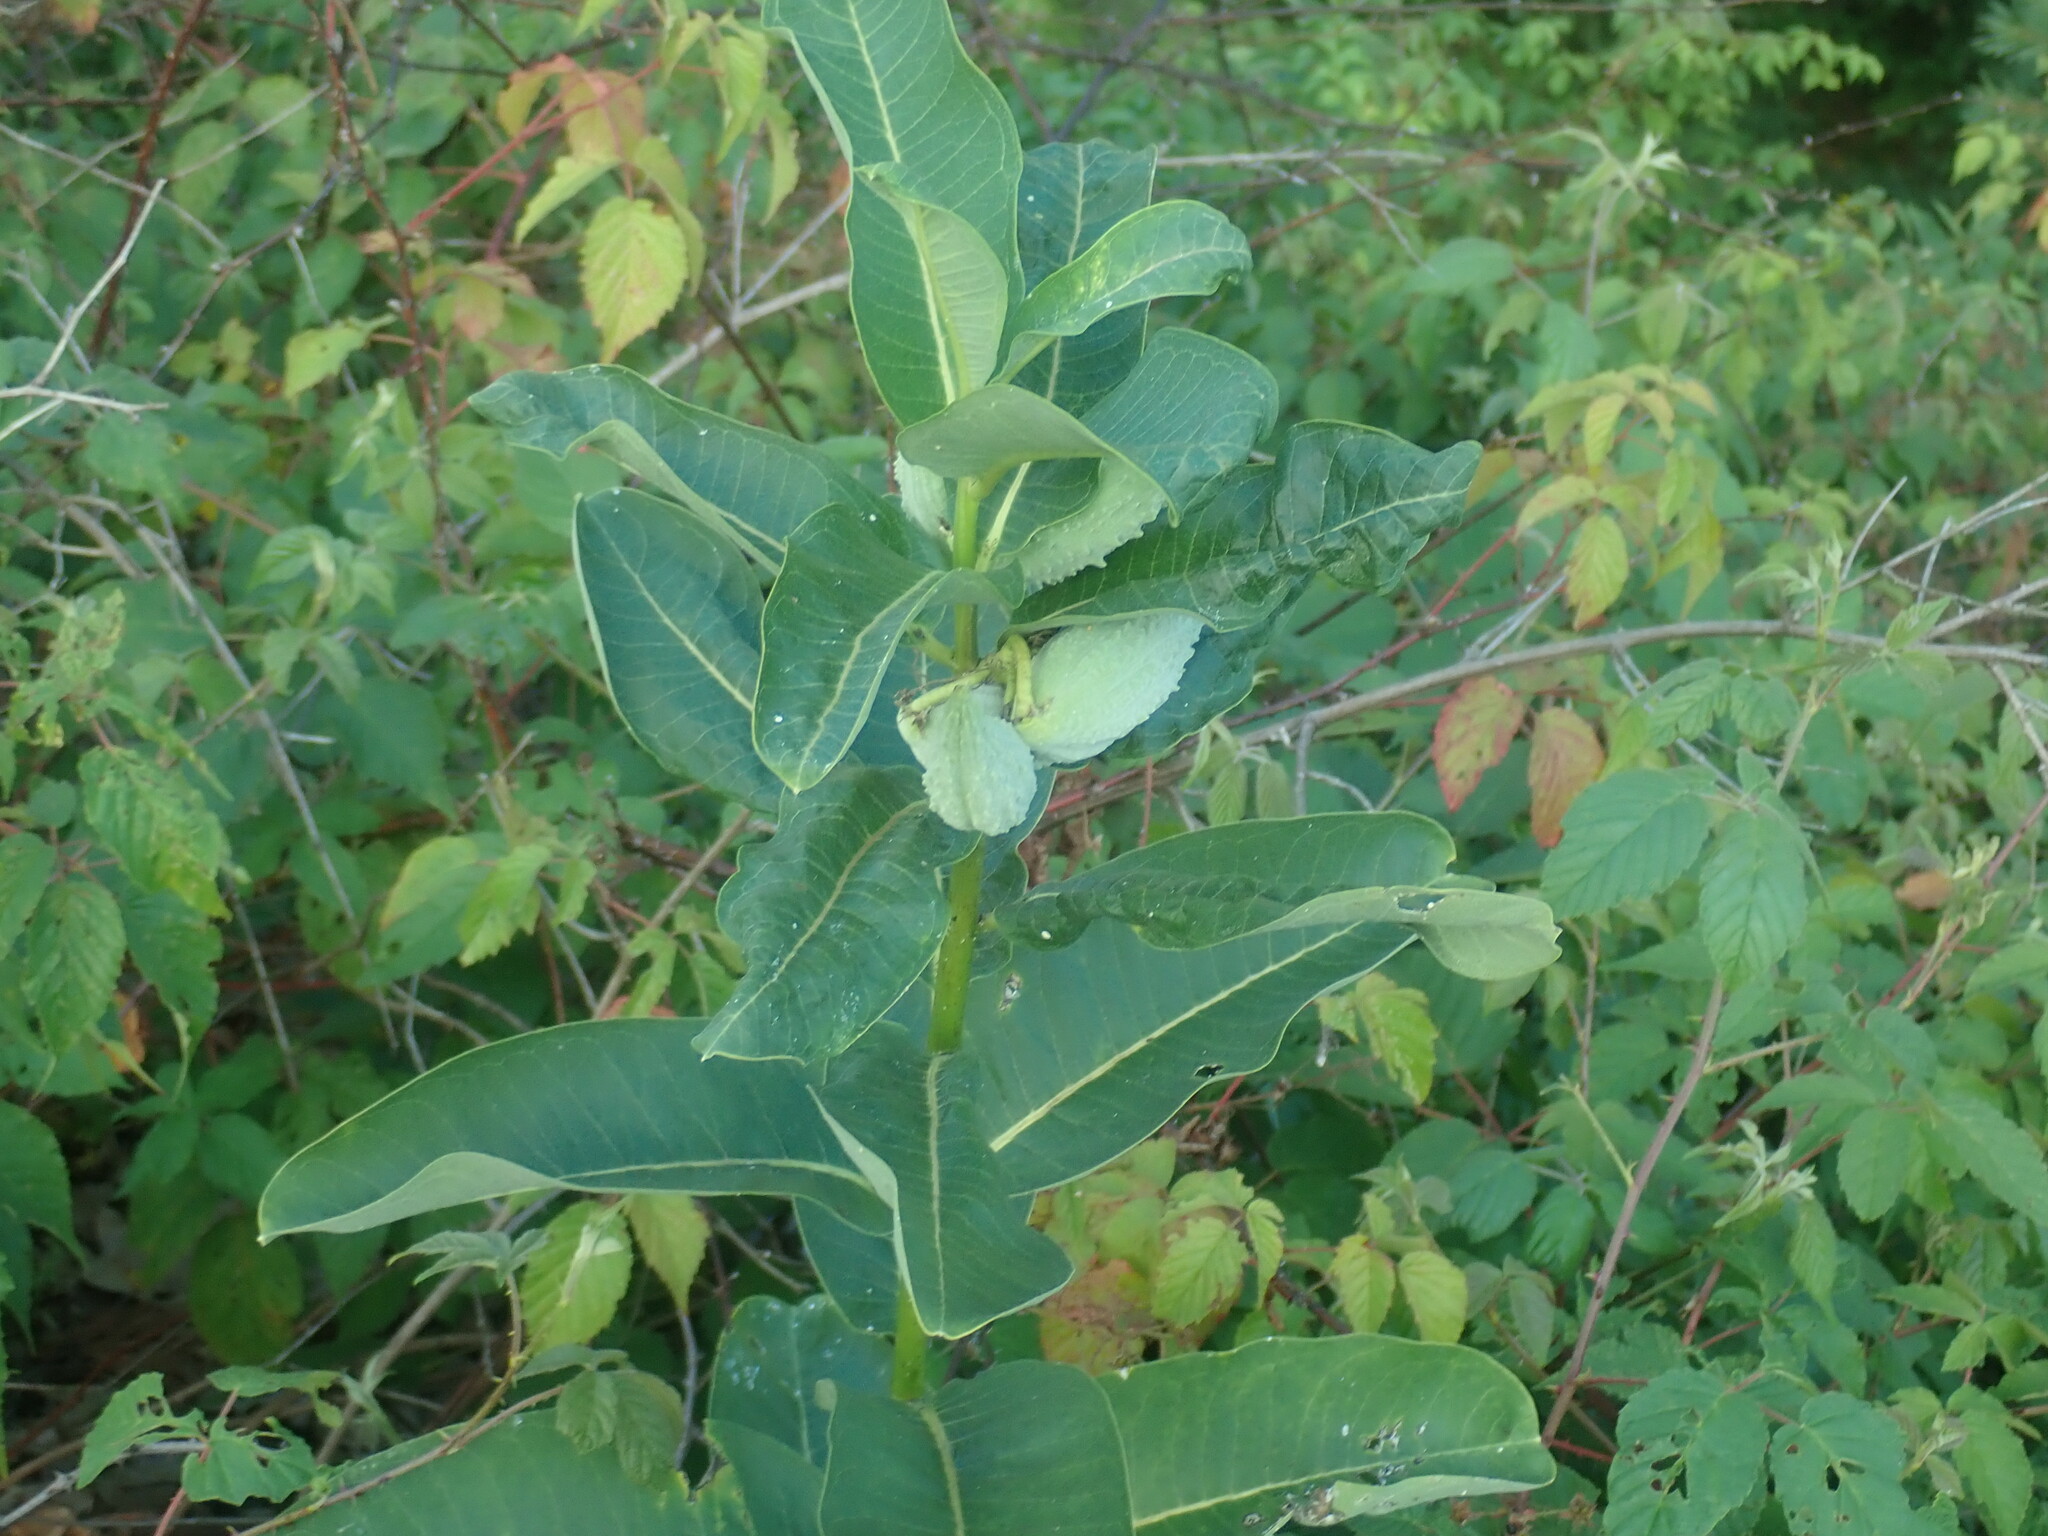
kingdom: Plantae
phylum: Tracheophyta
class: Magnoliopsida
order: Gentianales
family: Apocynaceae
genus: Asclepias
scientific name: Asclepias syriaca
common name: Common milkweed
